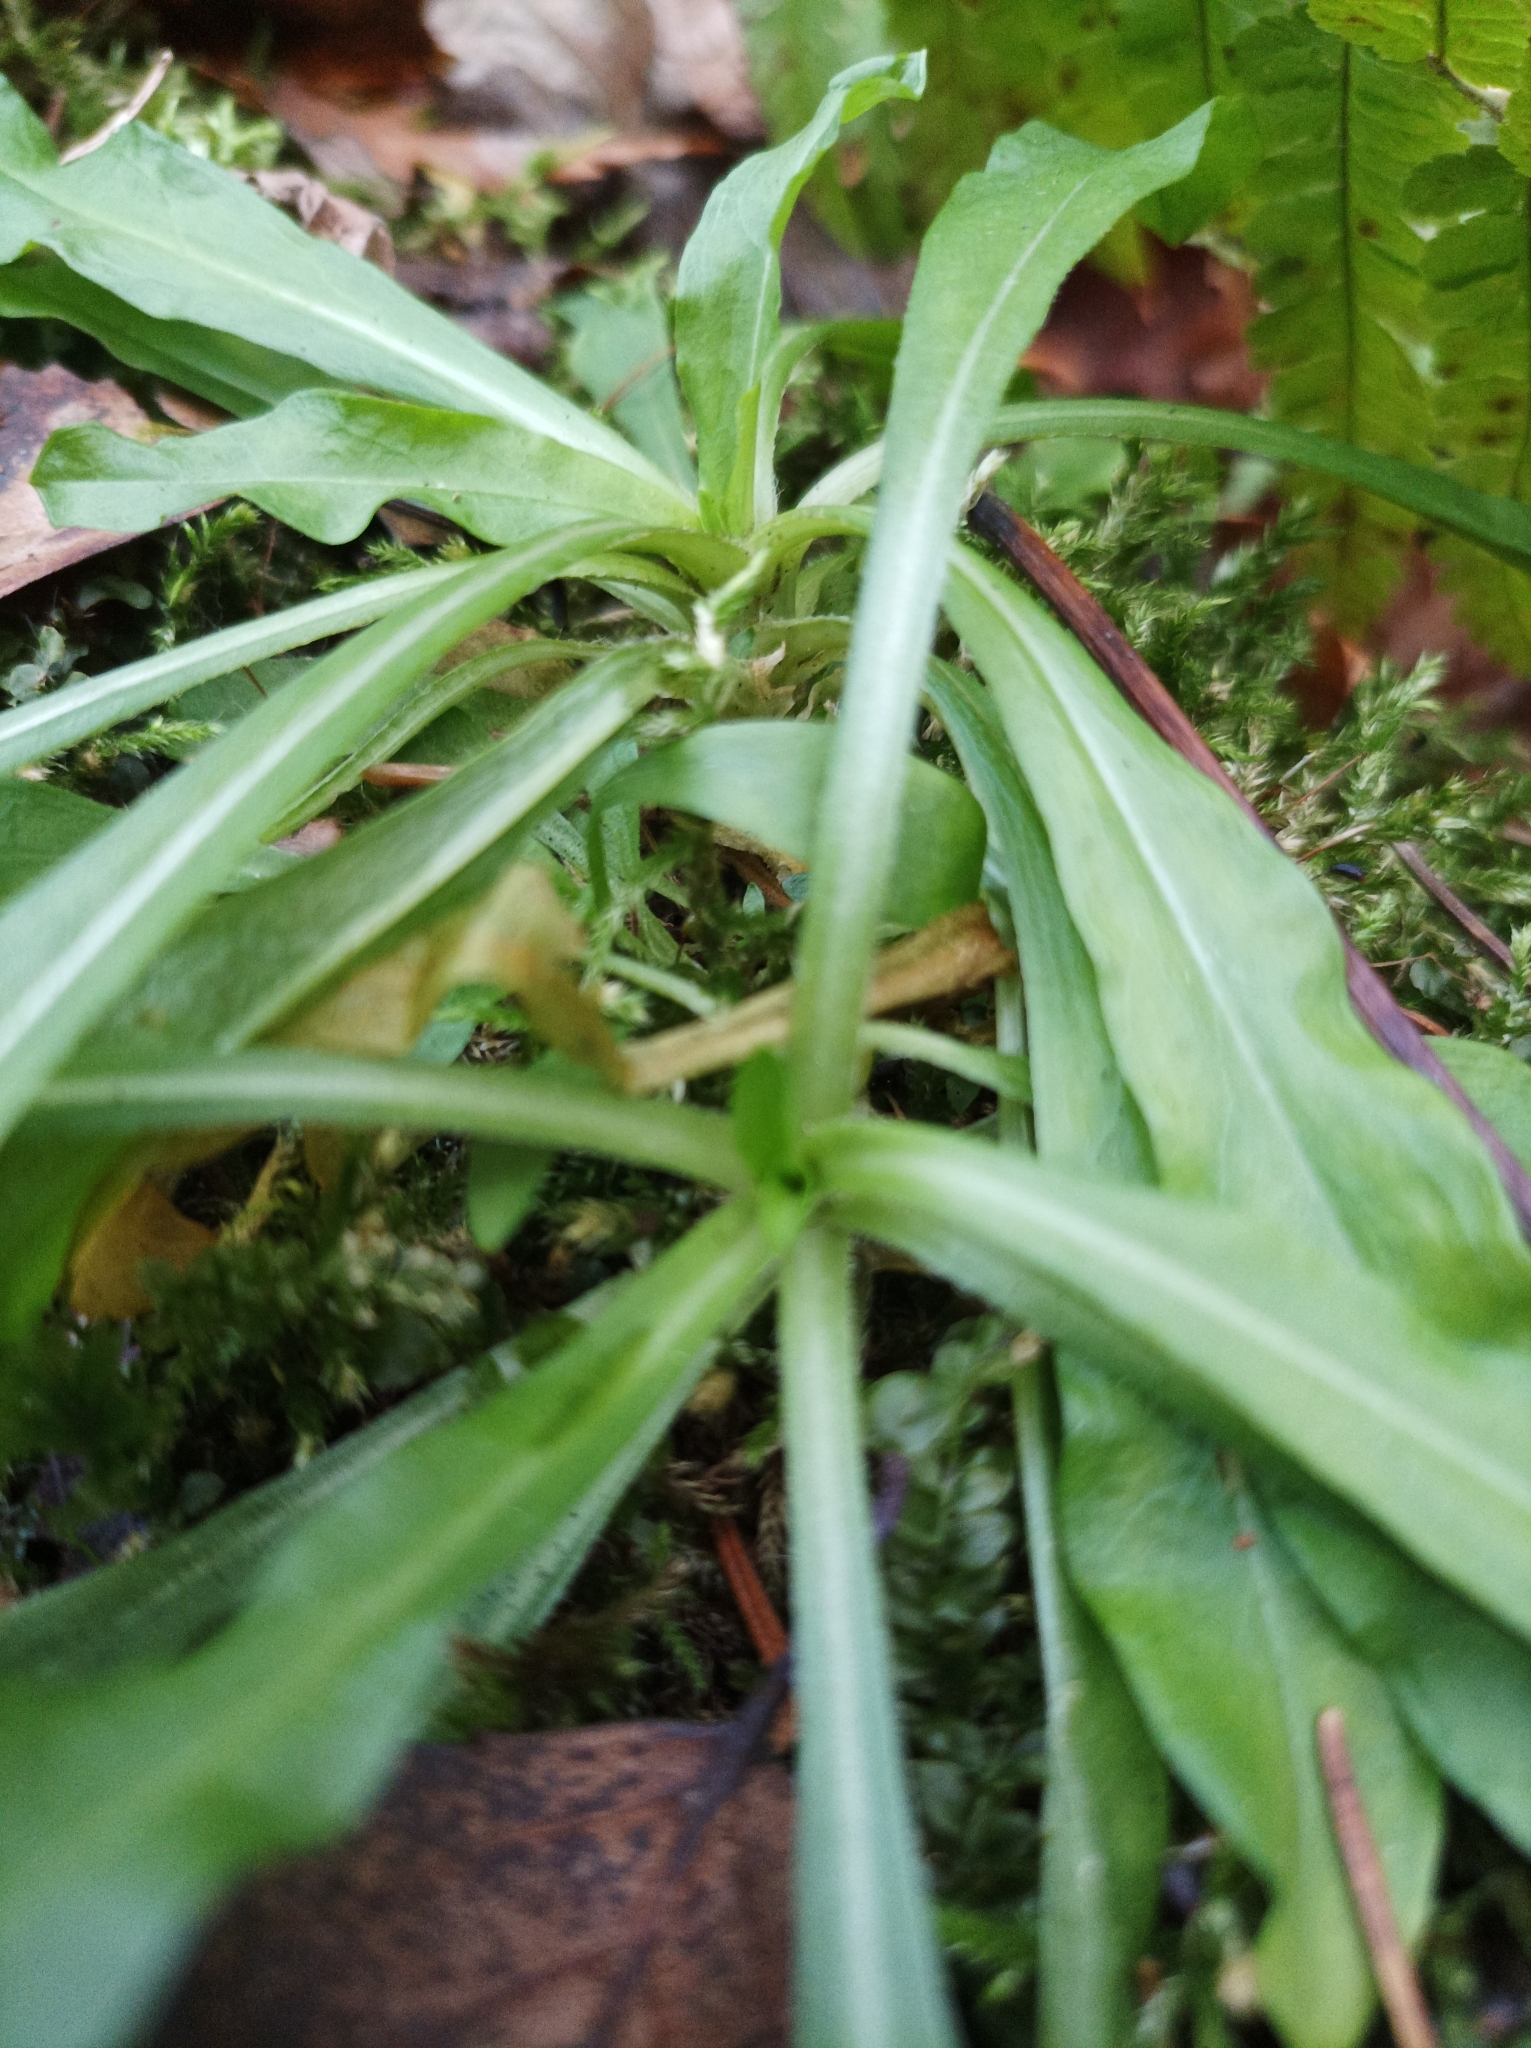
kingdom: Plantae
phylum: Tracheophyta
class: Magnoliopsida
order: Caryophyllales
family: Caryophyllaceae
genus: Silene
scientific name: Silene flos-cuculi
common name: Ragged-robin
